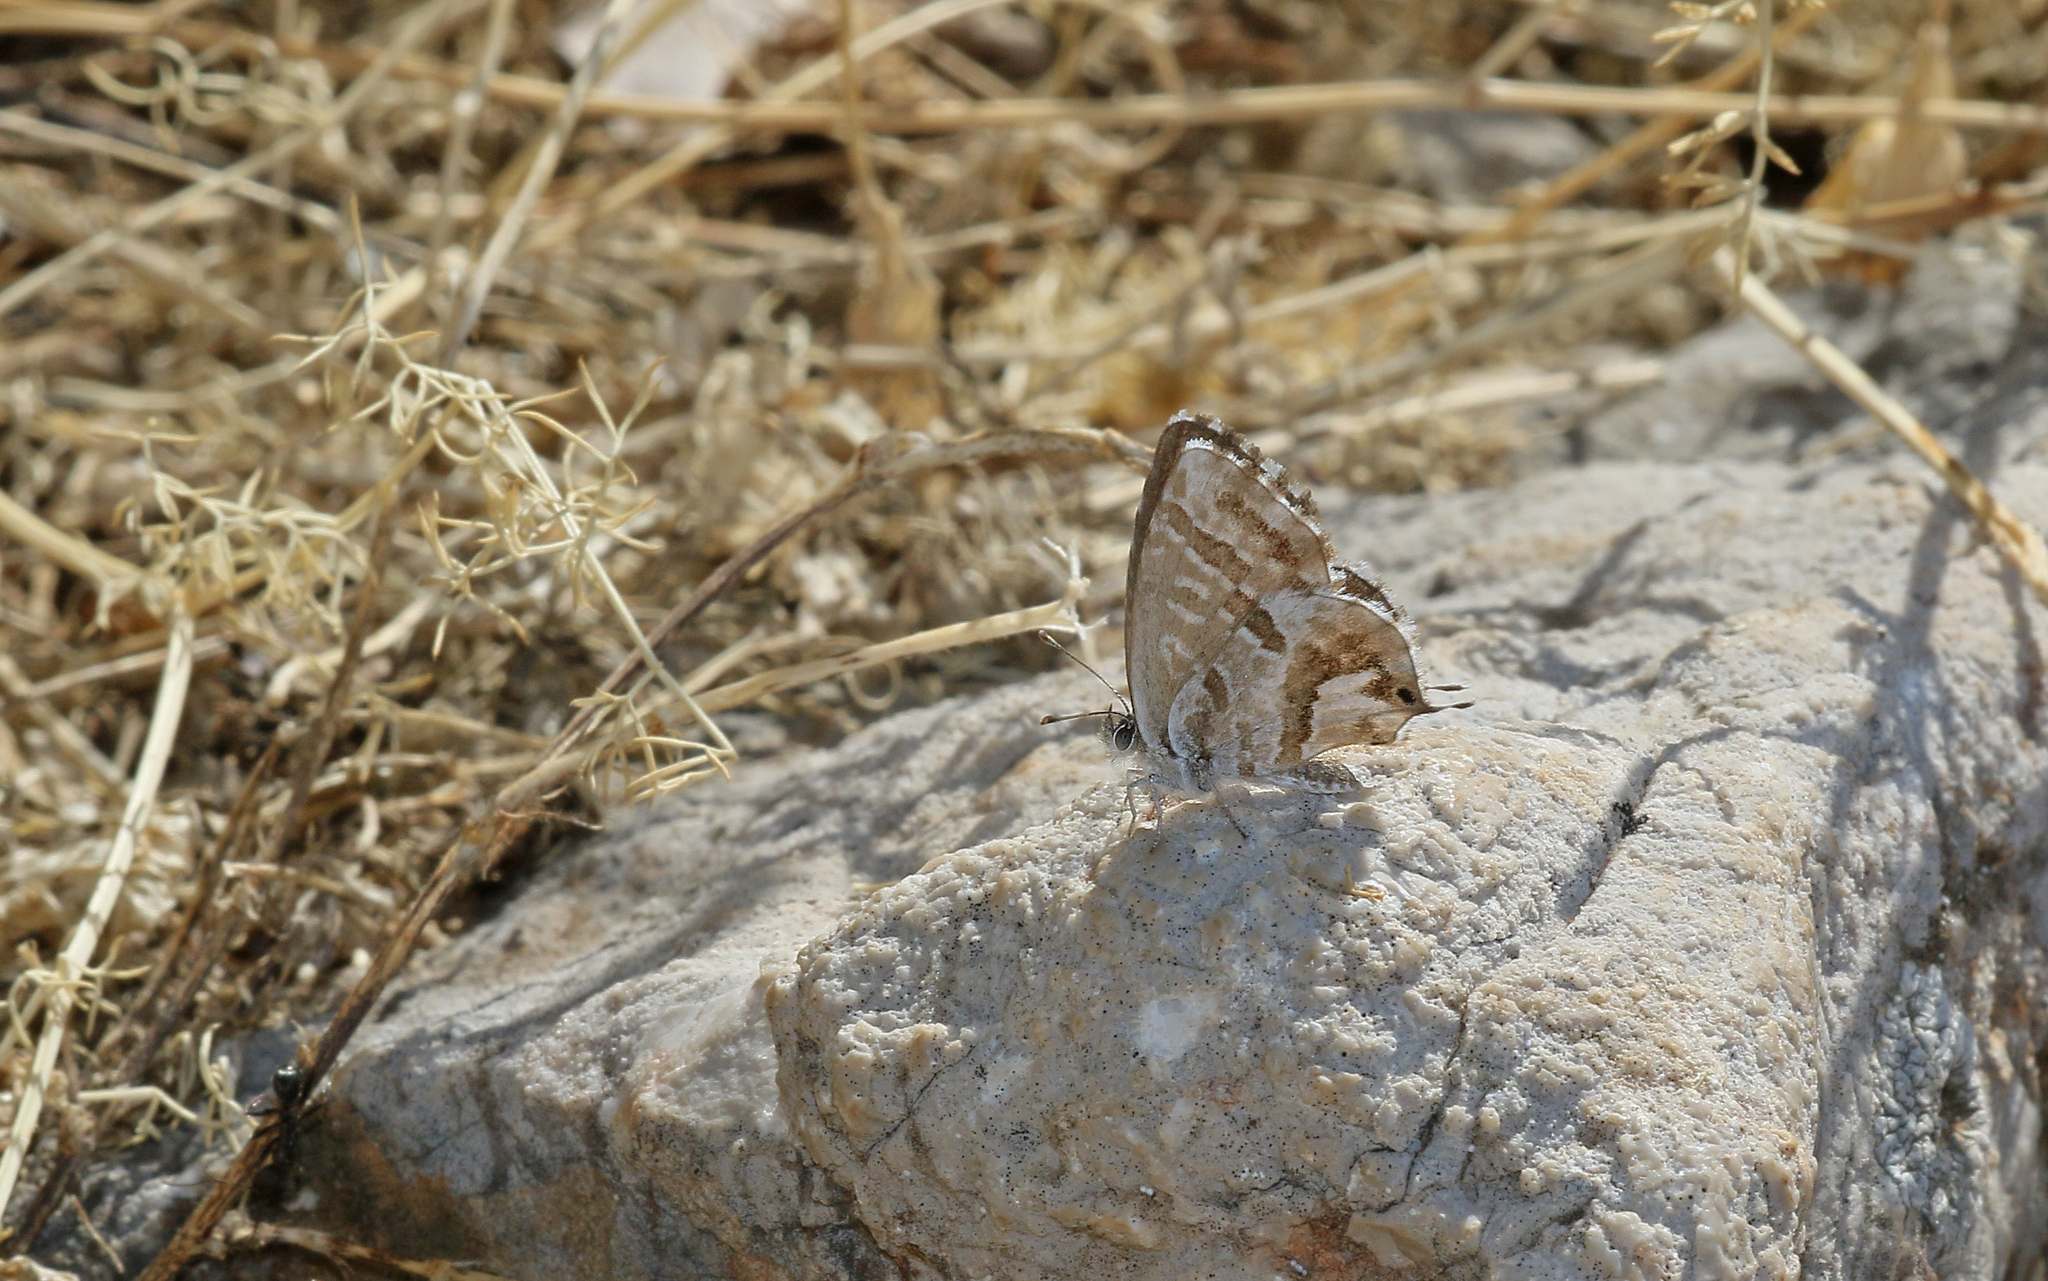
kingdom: Animalia
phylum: Arthropoda
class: Insecta
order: Lepidoptera
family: Lycaenidae
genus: Cacyreus
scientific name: Cacyreus marshalli
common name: Geranium bronze
